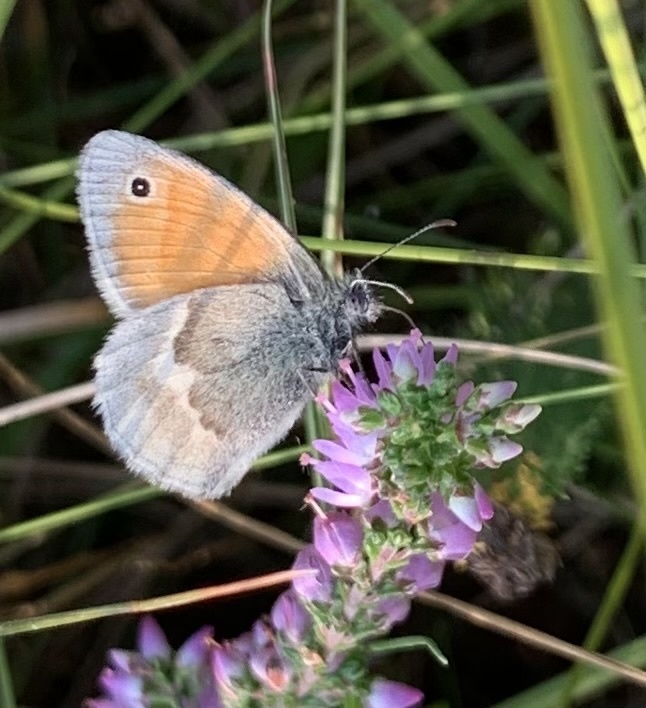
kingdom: Animalia
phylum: Arthropoda
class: Insecta
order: Lepidoptera
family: Nymphalidae
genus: Coenonympha
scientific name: Coenonympha pamphilus
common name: Small heath
